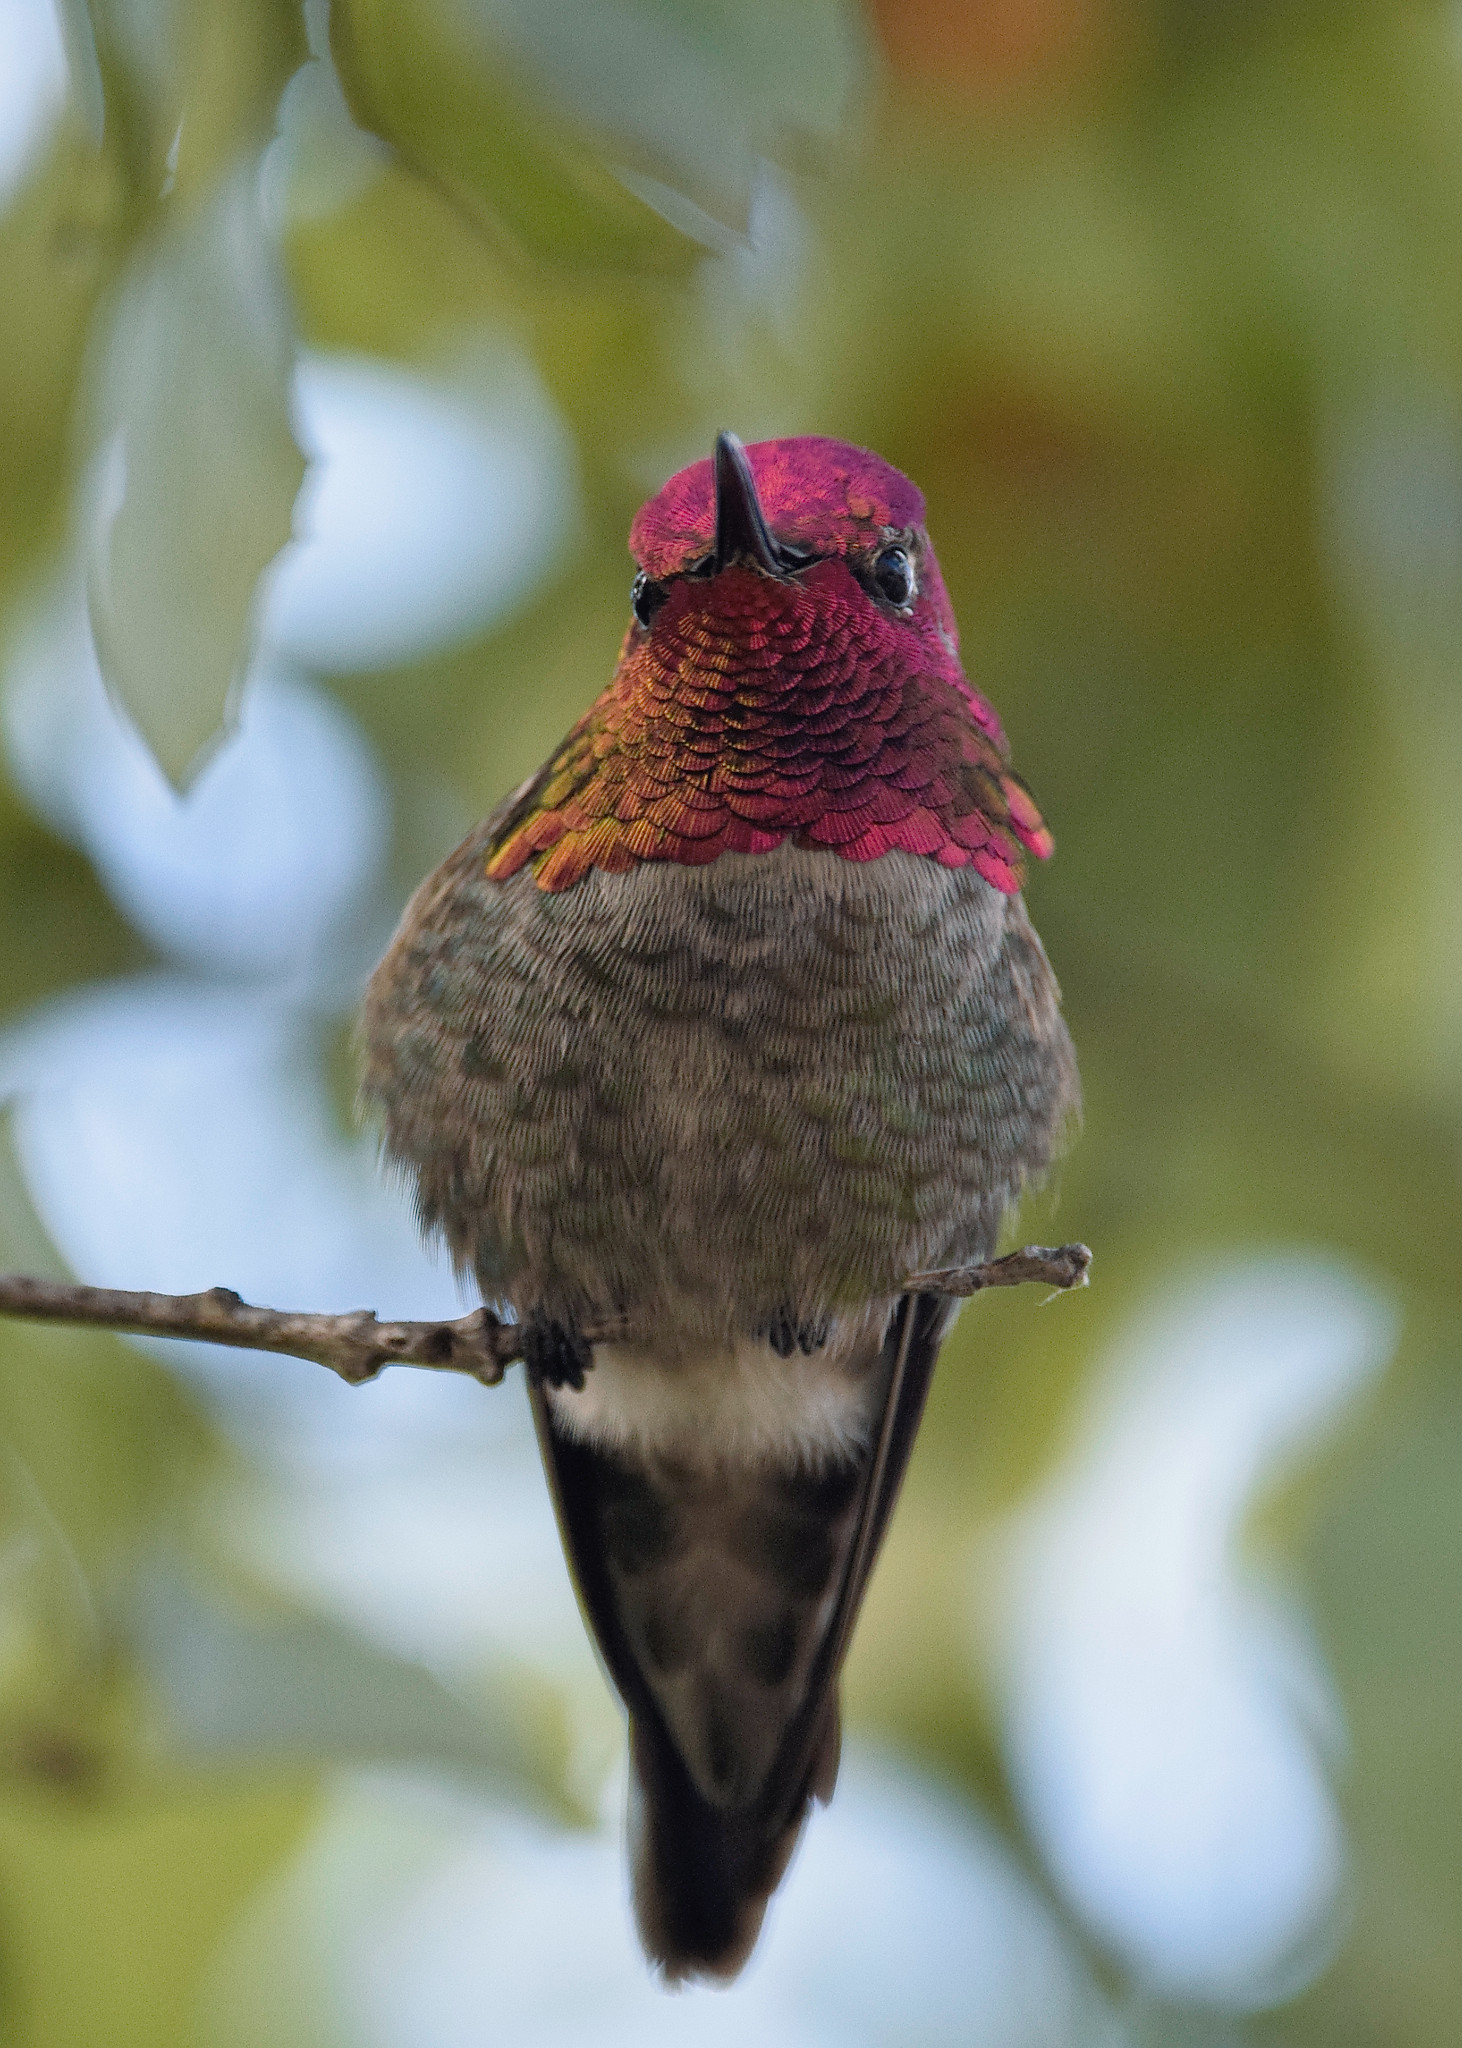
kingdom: Animalia
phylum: Chordata
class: Aves
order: Apodiformes
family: Trochilidae
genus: Calypte
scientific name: Calypte anna
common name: Anna's hummingbird
